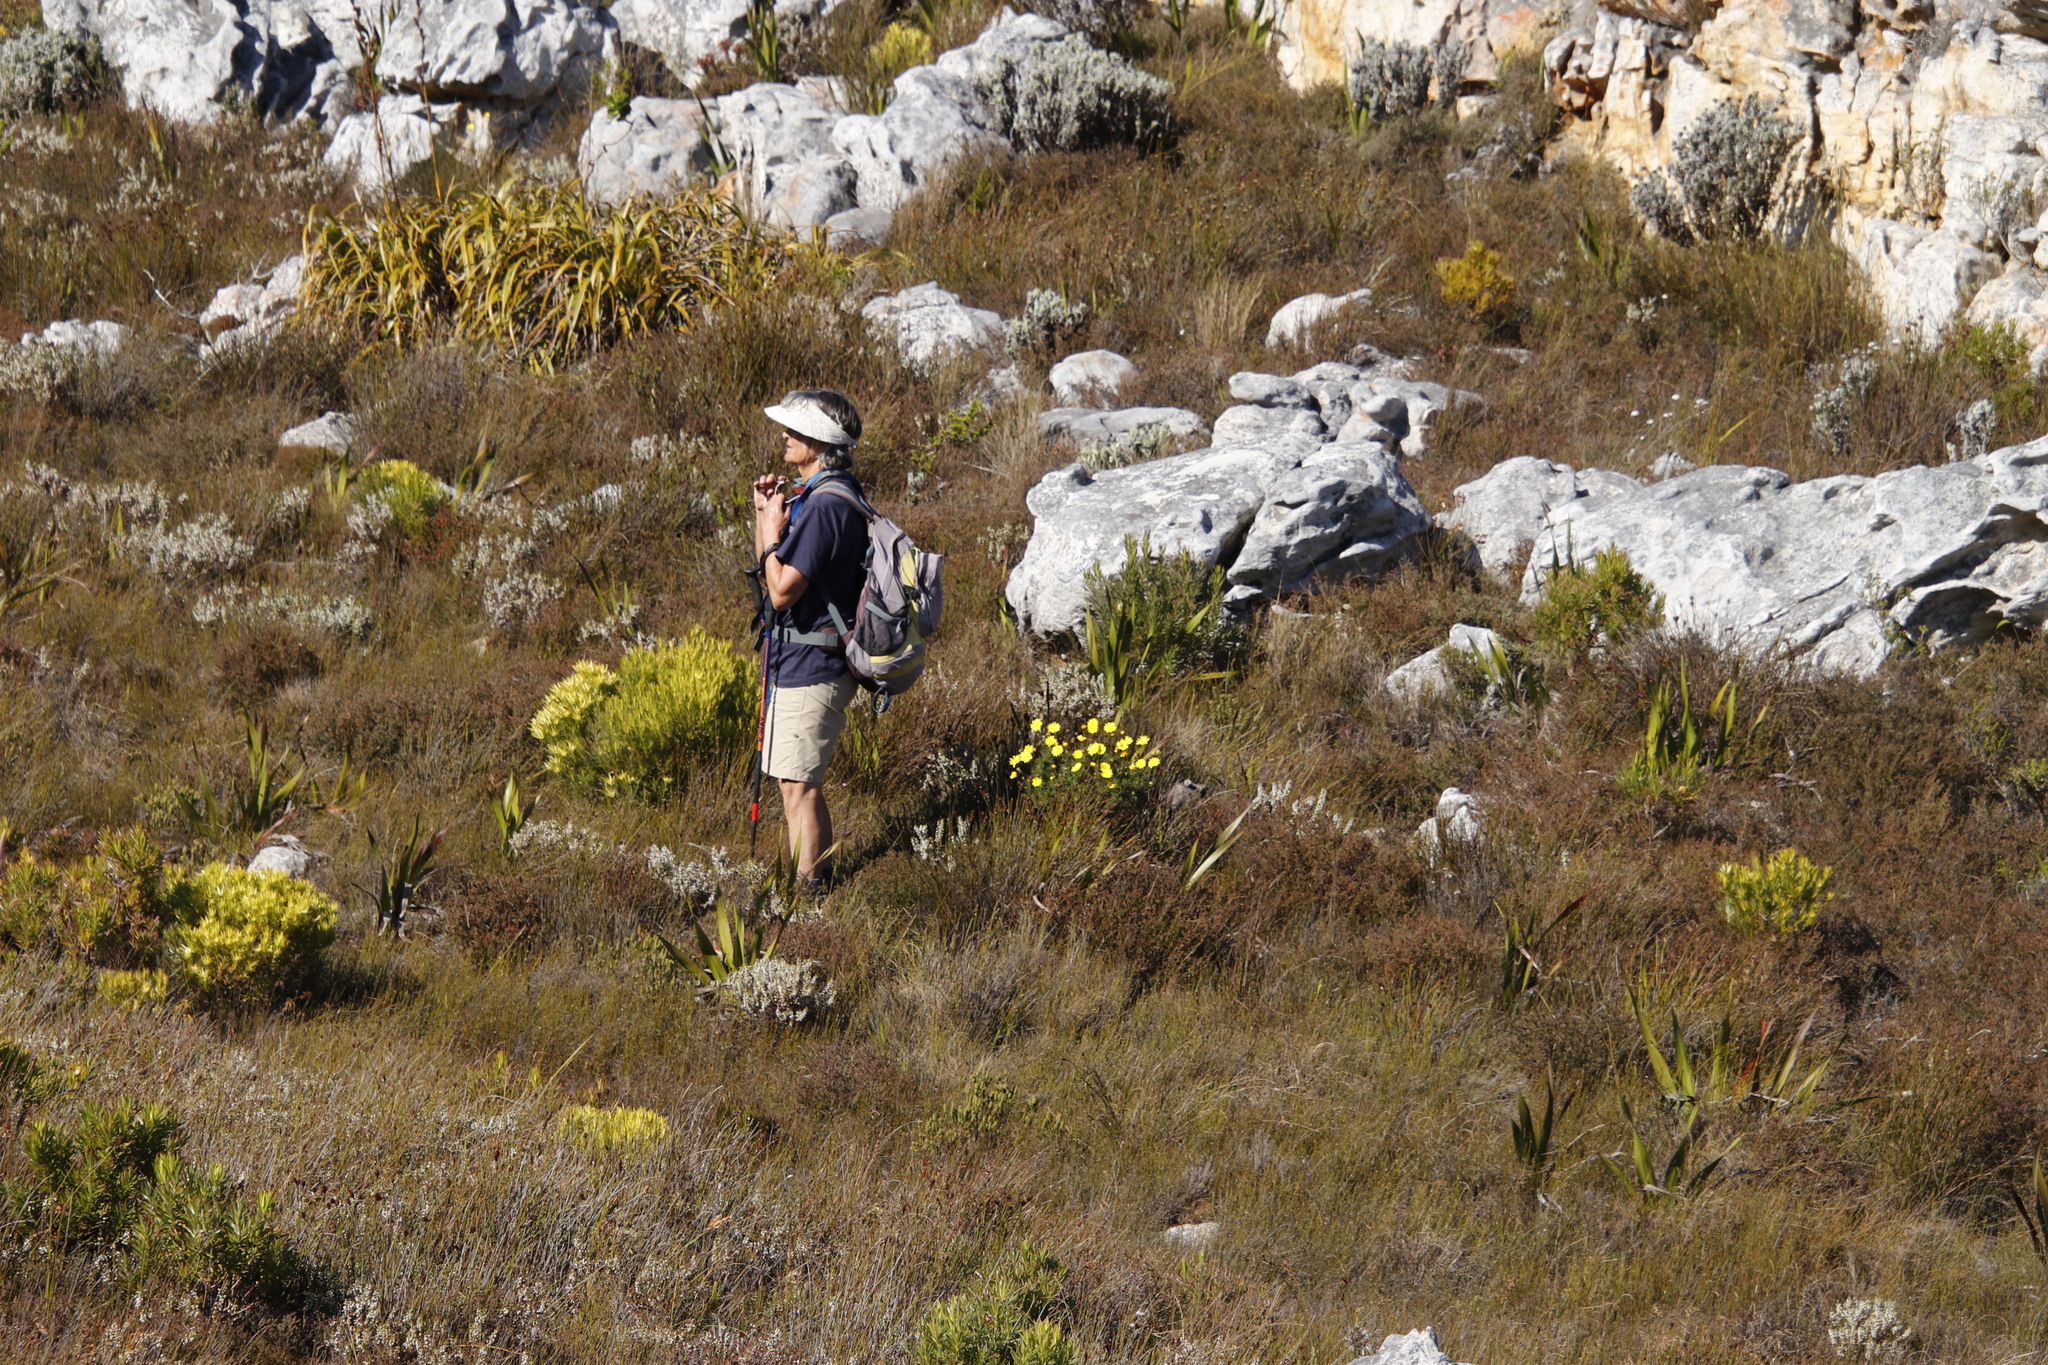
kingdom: Plantae
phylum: Tracheophyta
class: Magnoliopsida
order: Asterales
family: Asteraceae
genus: Euryops
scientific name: Euryops abrotanifolius
